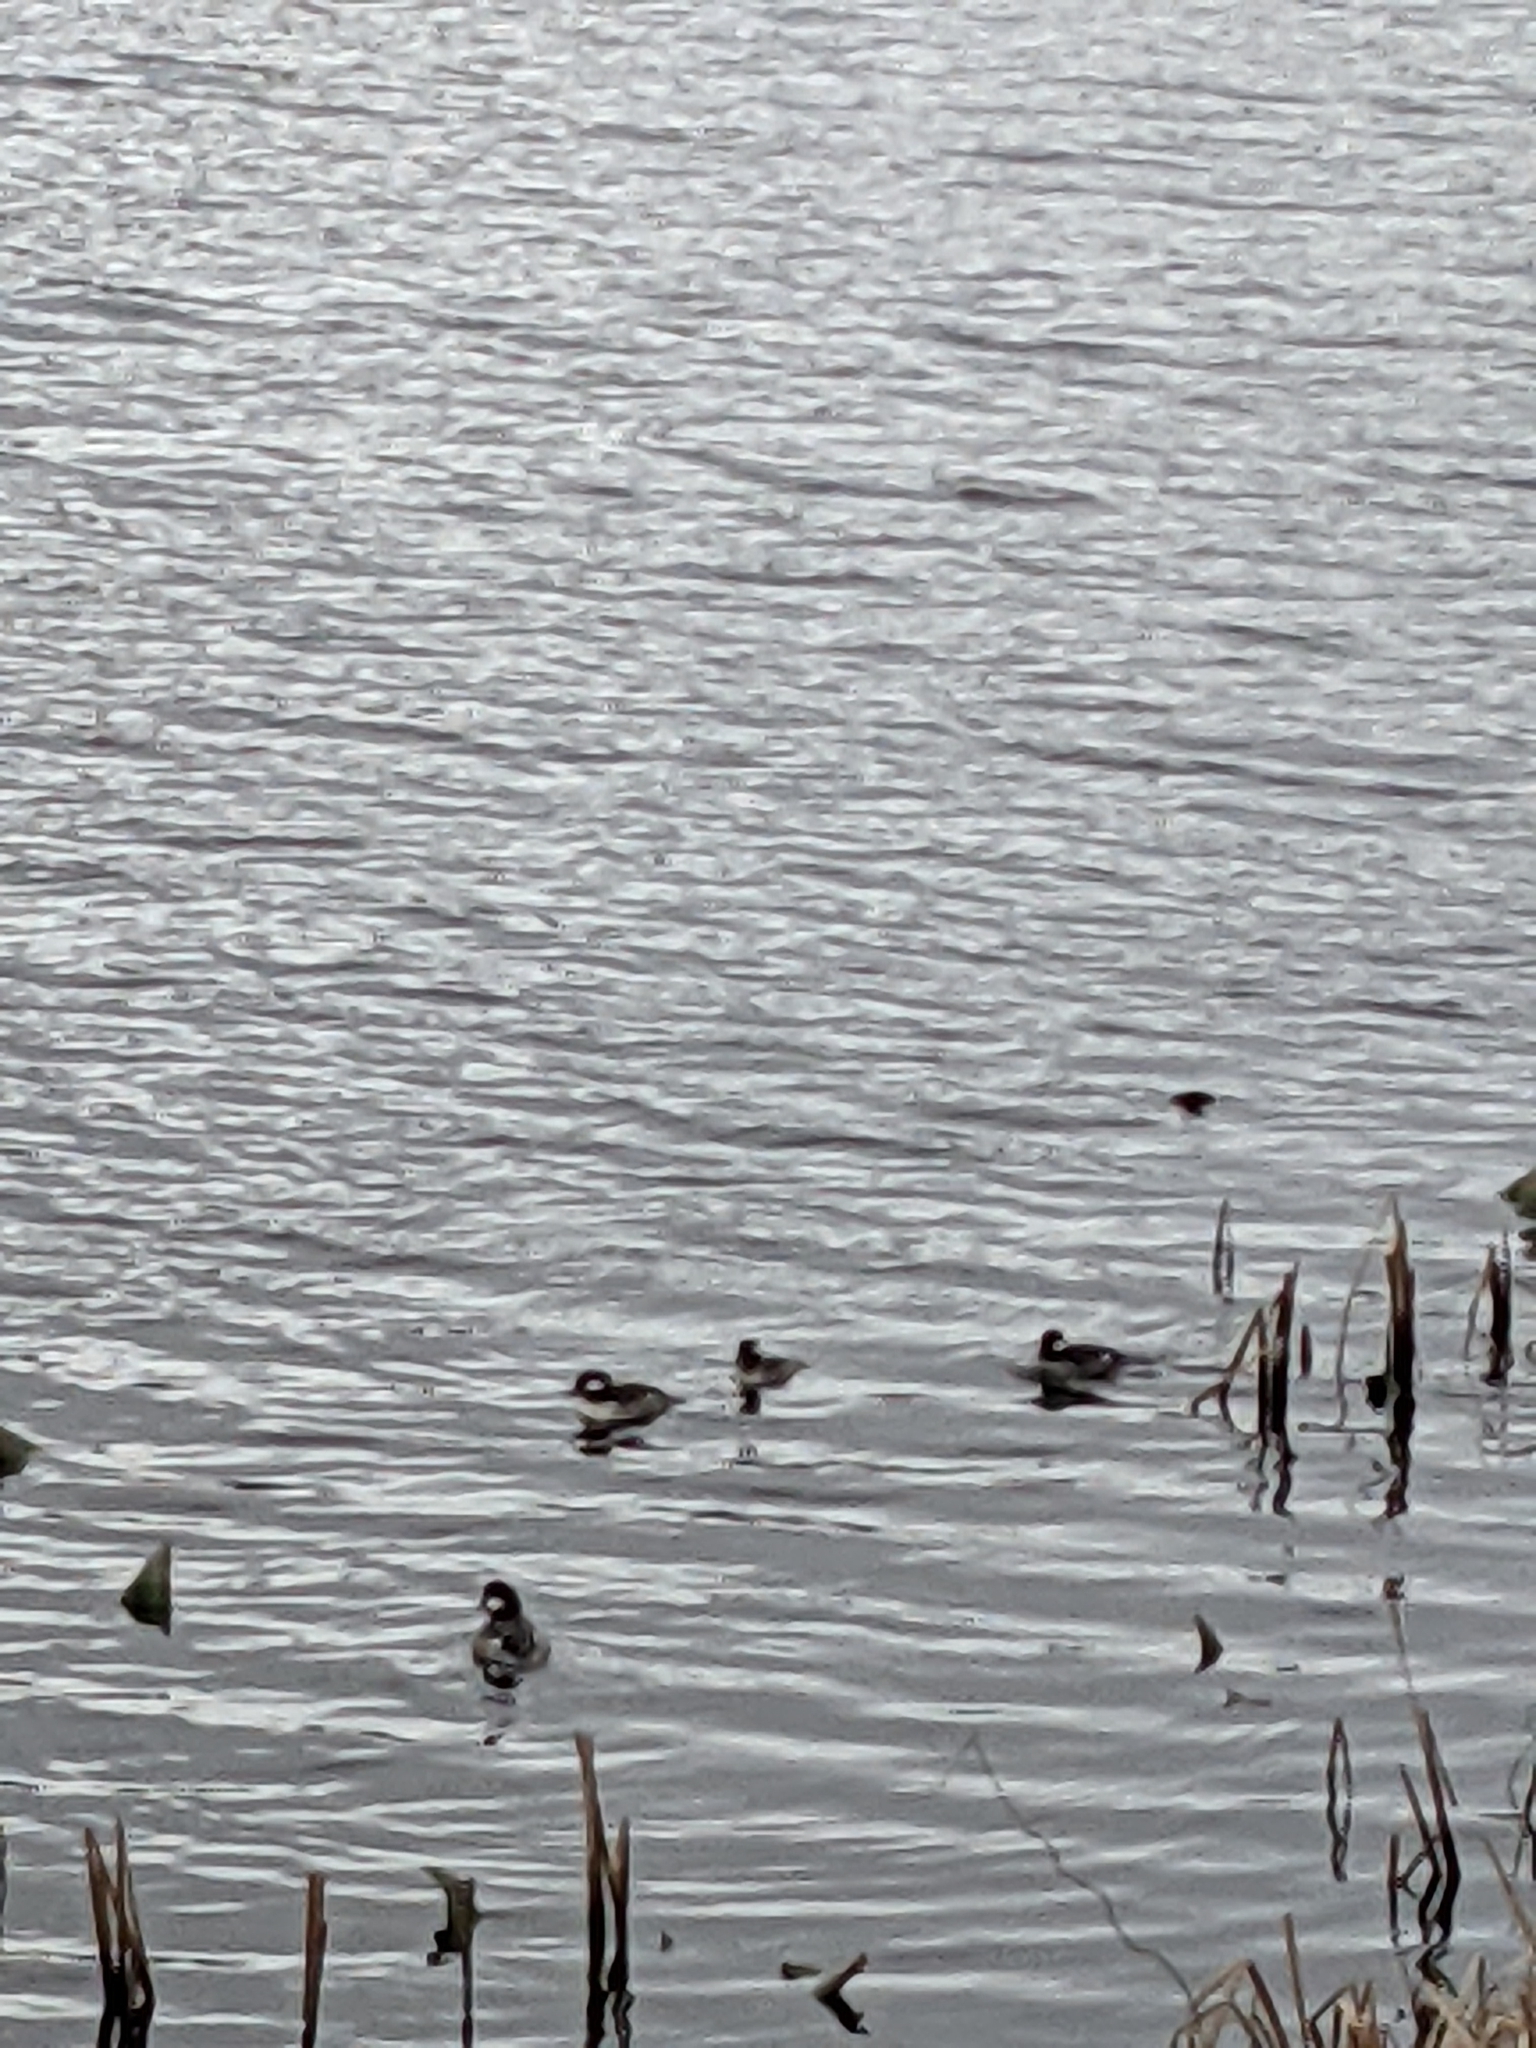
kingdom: Animalia
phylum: Chordata
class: Aves
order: Anseriformes
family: Anatidae
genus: Bucephala
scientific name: Bucephala albeola
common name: Bufflehead
